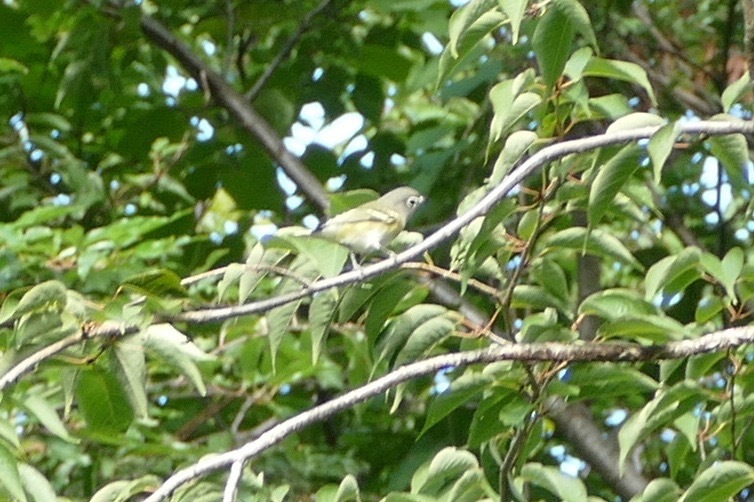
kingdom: Animalia
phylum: Chordata
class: Aves
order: Passeriformes
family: Vireonidae
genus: Vireo
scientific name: Vireo solitarius
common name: Blue-headed vireo
